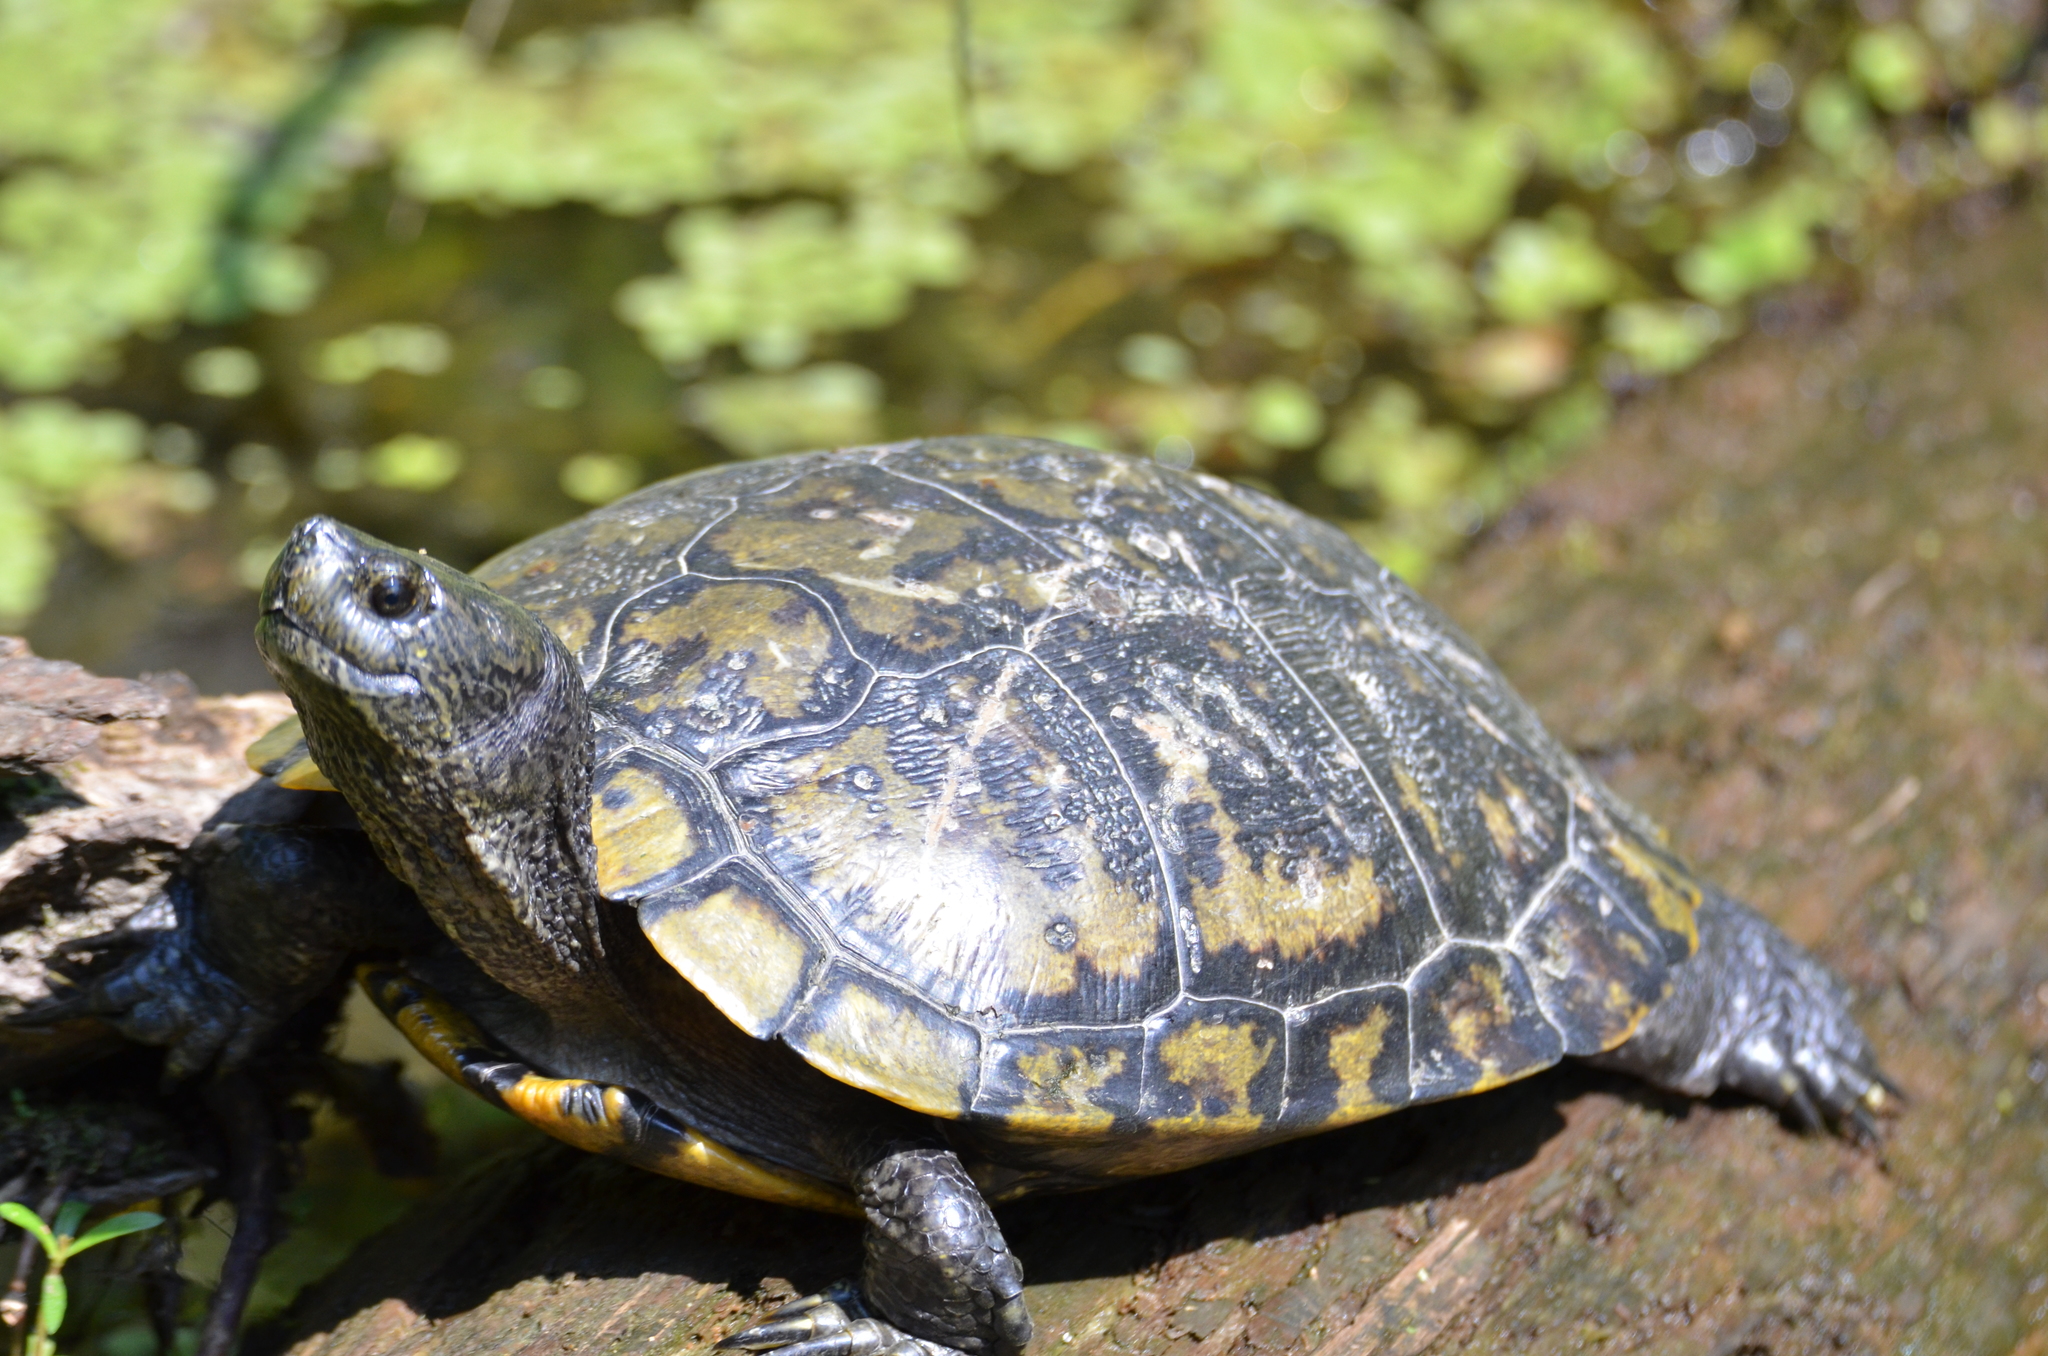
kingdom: Animalia
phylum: Chordata
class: Testudines
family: Emydidae
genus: Trachemys
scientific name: Trachemys scripta
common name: Slider
